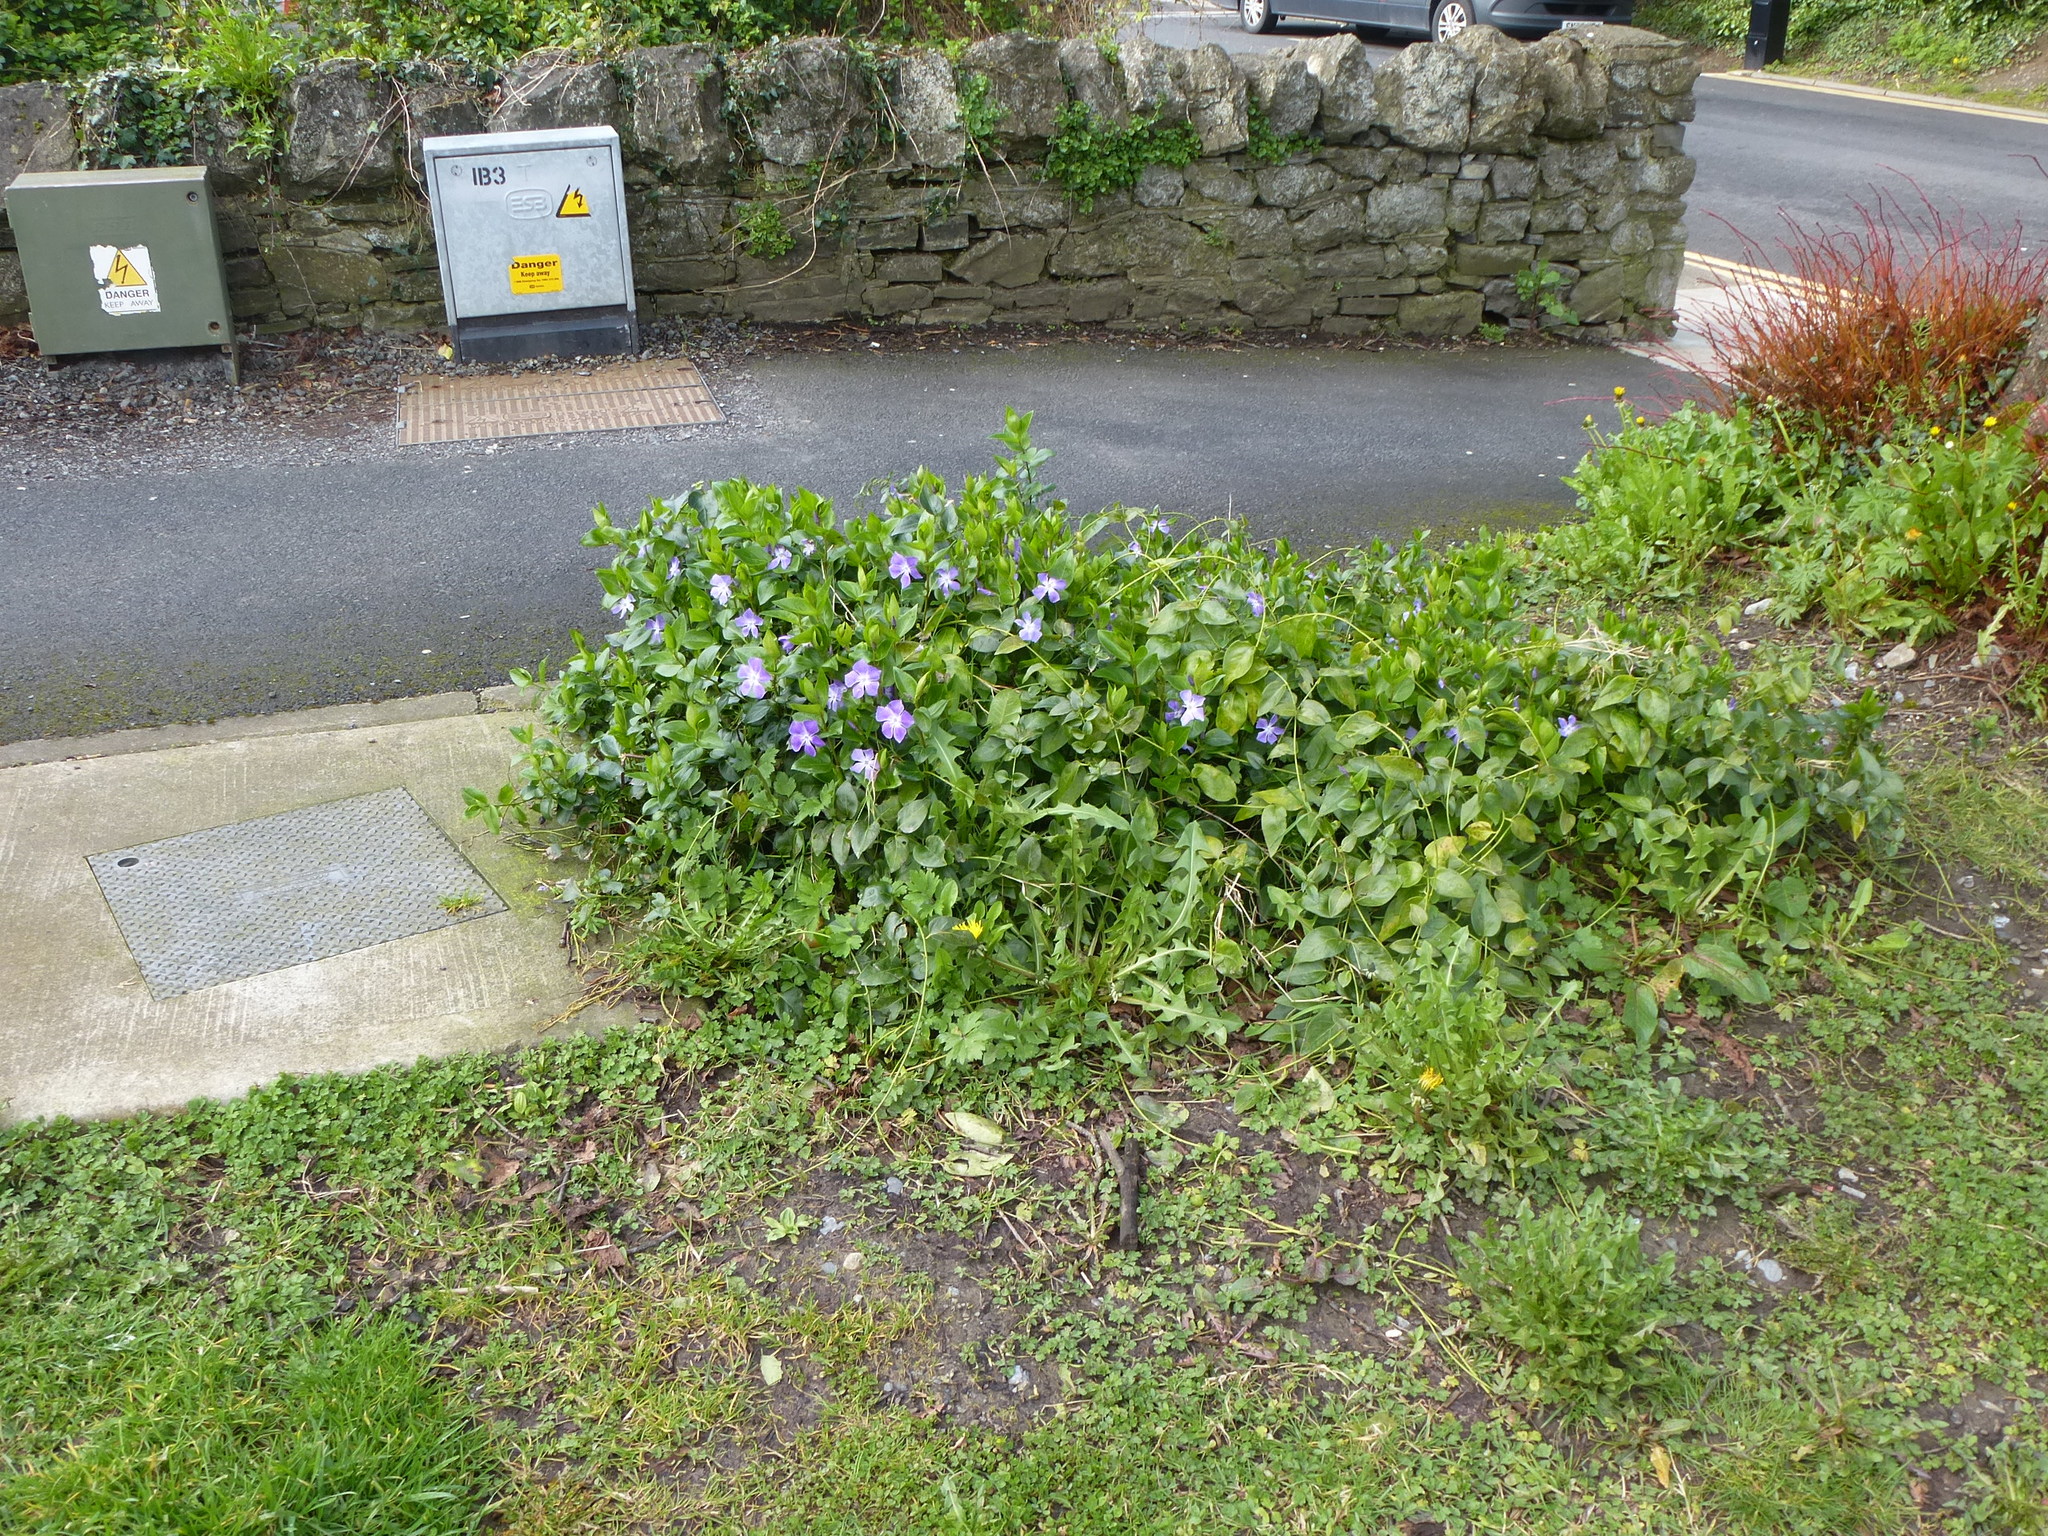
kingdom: Plantae
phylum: Tracheophyta
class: Magnoliopsida
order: Gentianales
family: Apocynaceae
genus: Vinca
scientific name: Vinca major
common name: Greater periwinkle
